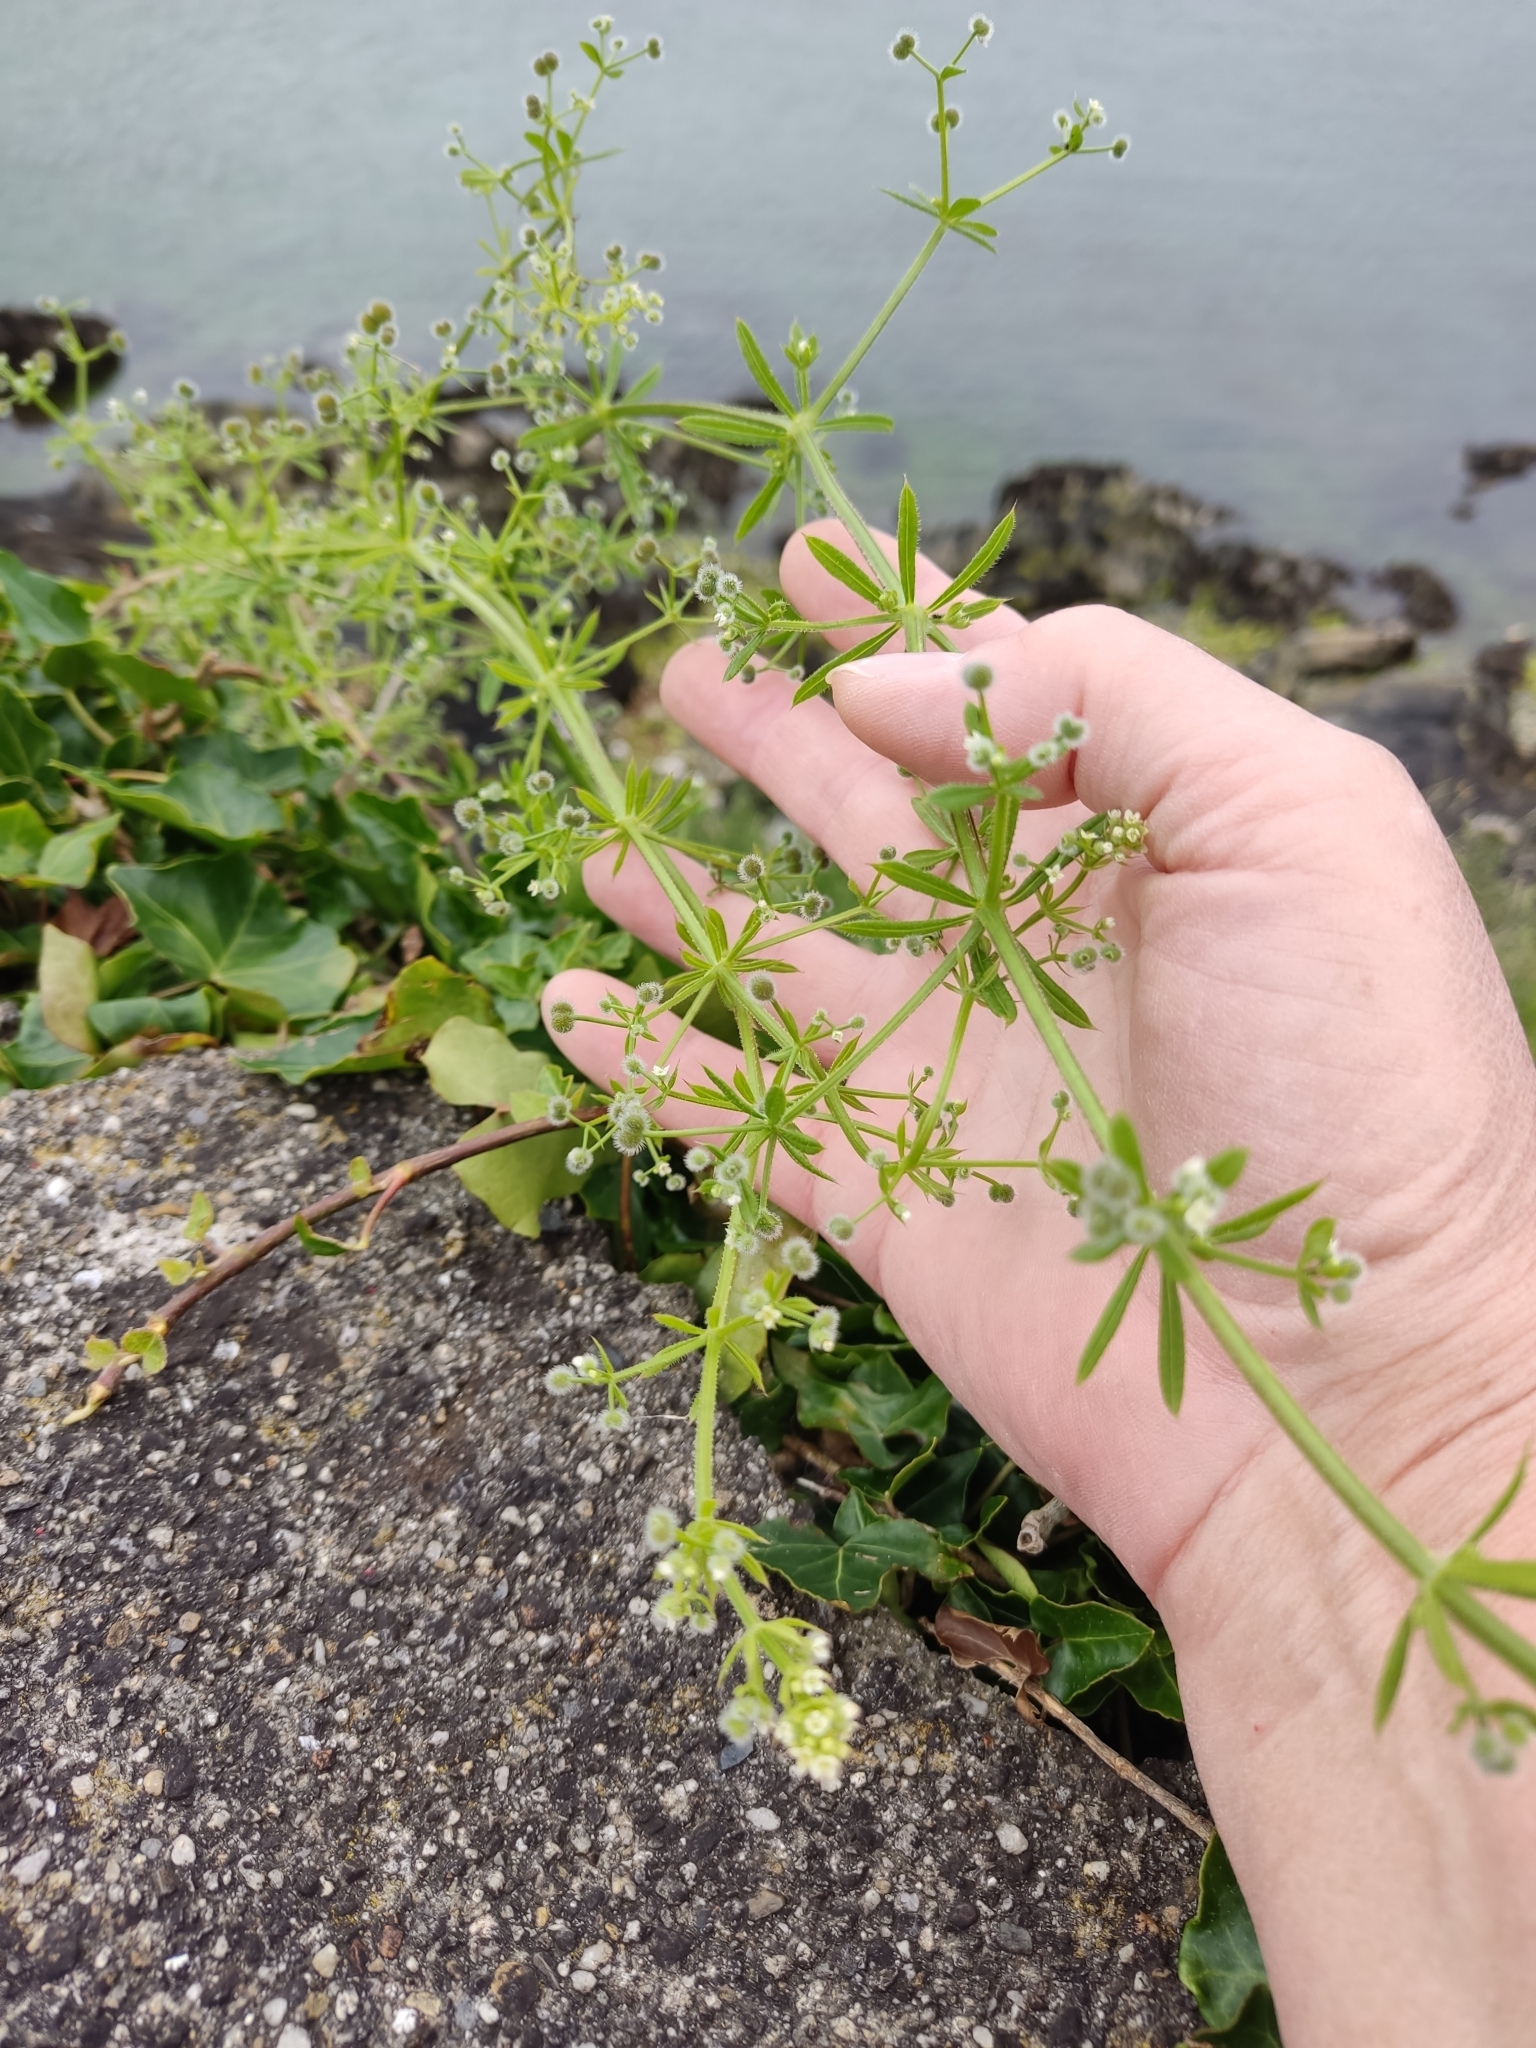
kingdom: Plantae
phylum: Tracheophyta
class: Magnoliopsida
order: Gentianales
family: Rubiaceae
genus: Galium
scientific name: Galium aparine
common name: Cleavers
